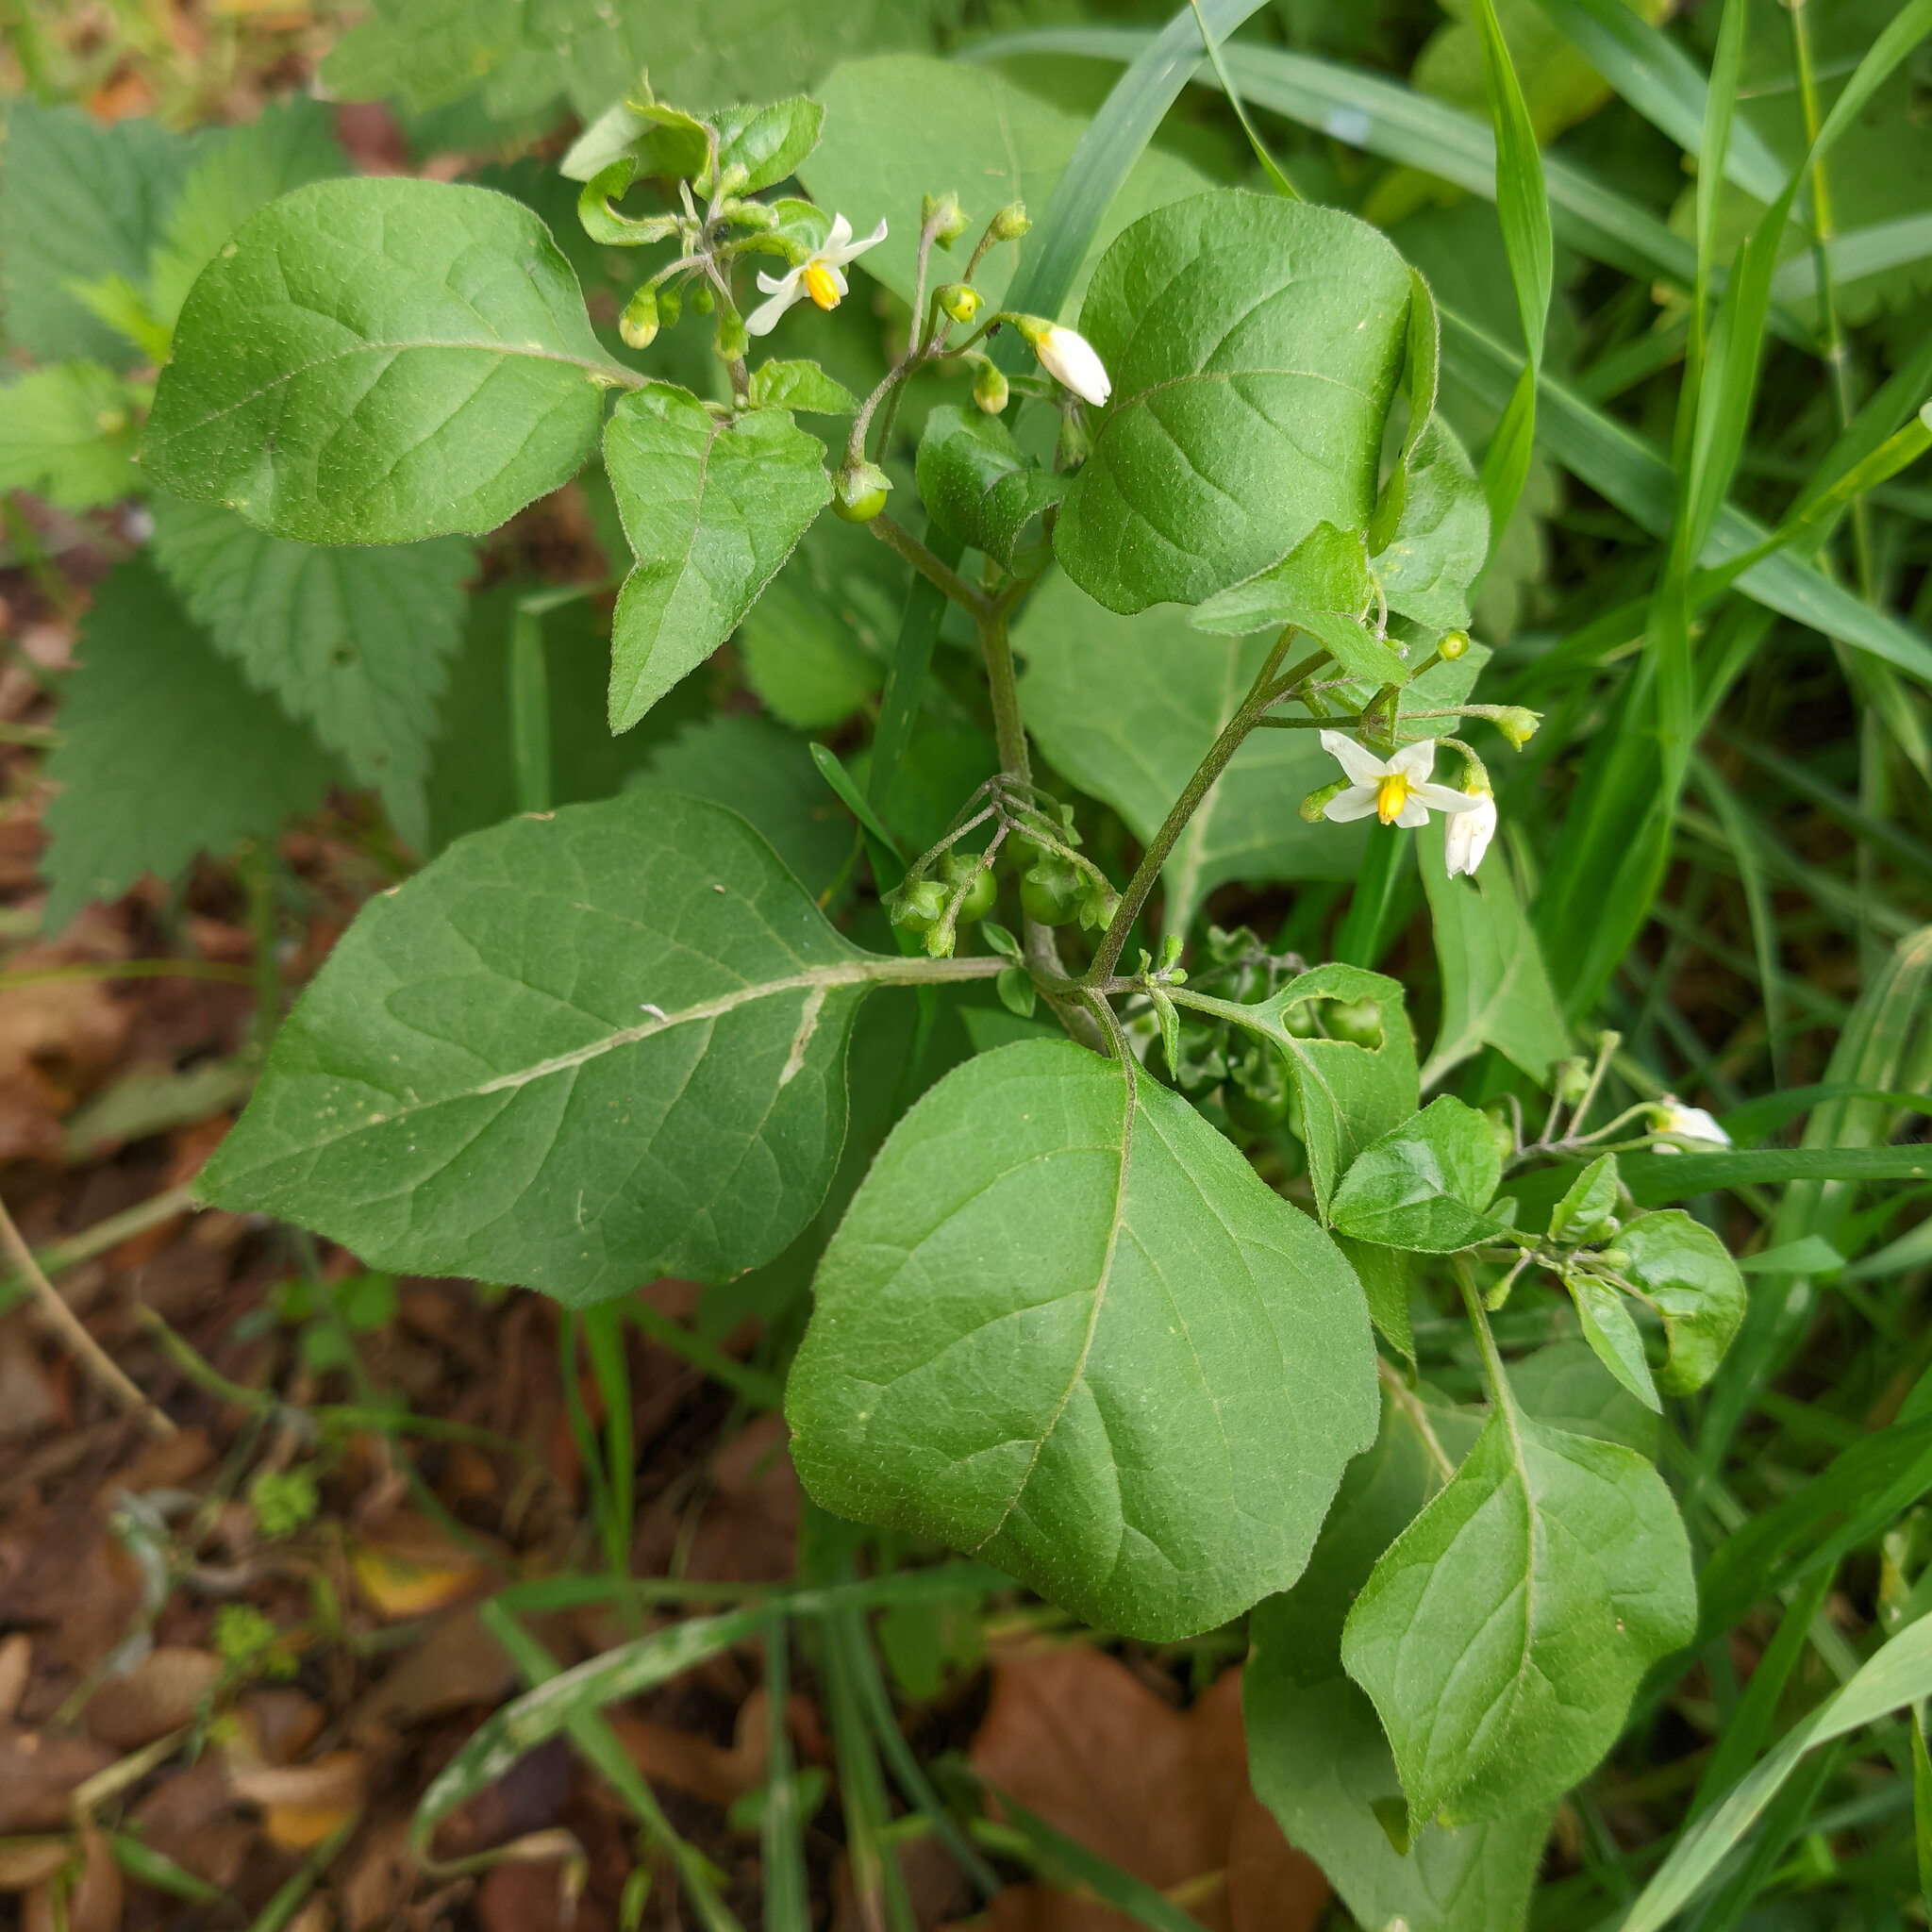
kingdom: Plantae
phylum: Tracheophyta
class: Magnoliopsida
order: Solanales
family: Solanaceae
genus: Solanum
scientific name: Solanum nigrum
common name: Black nightshade
